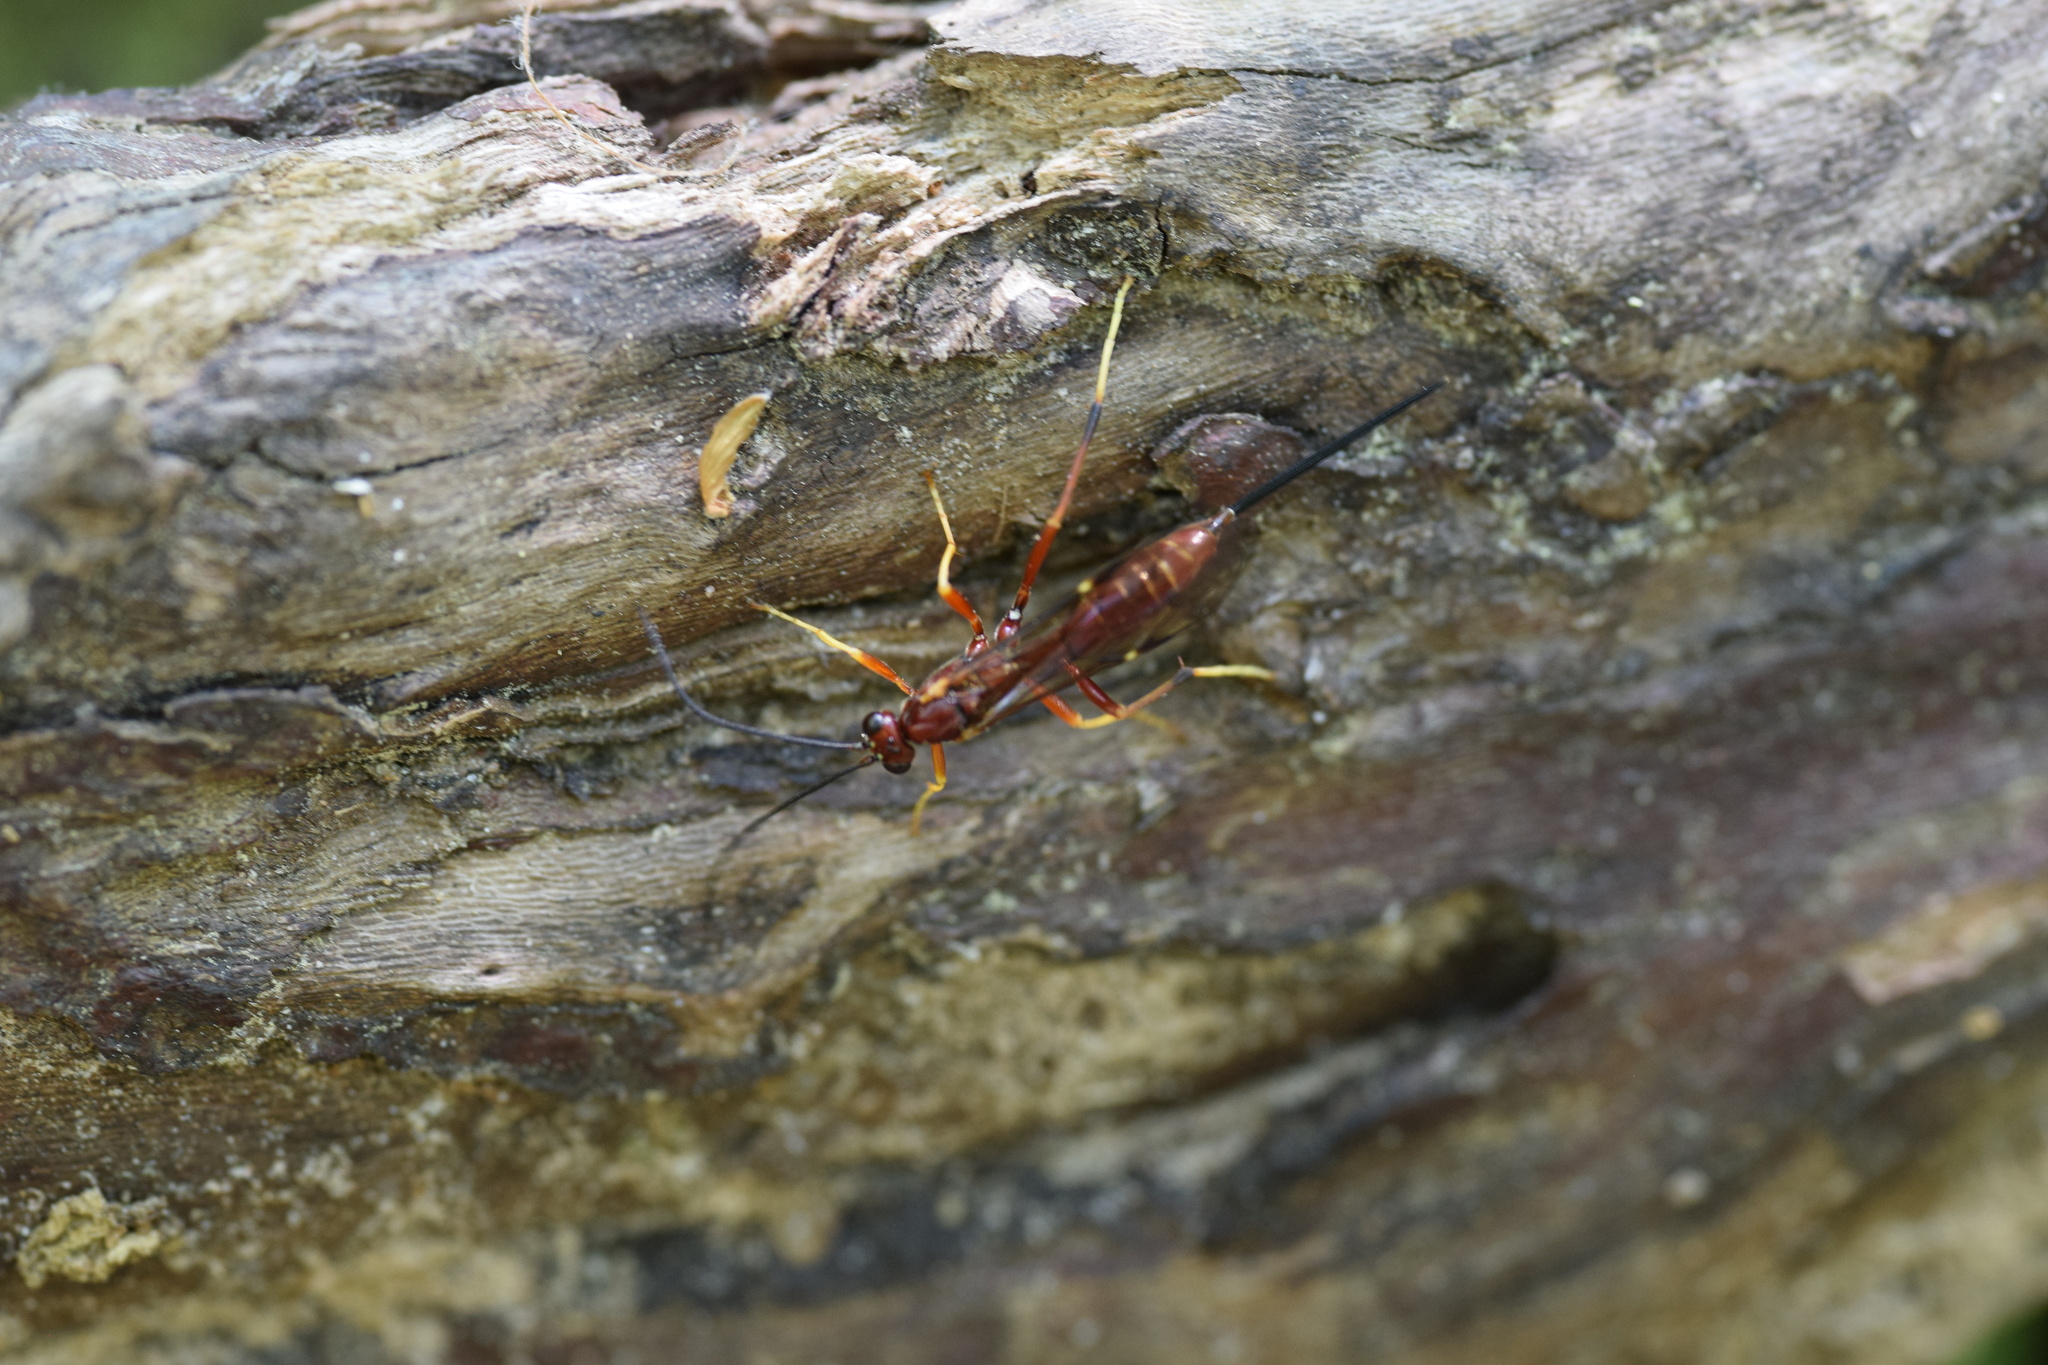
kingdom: Animalia
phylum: Arthropoda
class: Insecta
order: Hymenoptera
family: Ichneumonidae
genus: Coleocentrus
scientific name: Coleocentrus rufus
